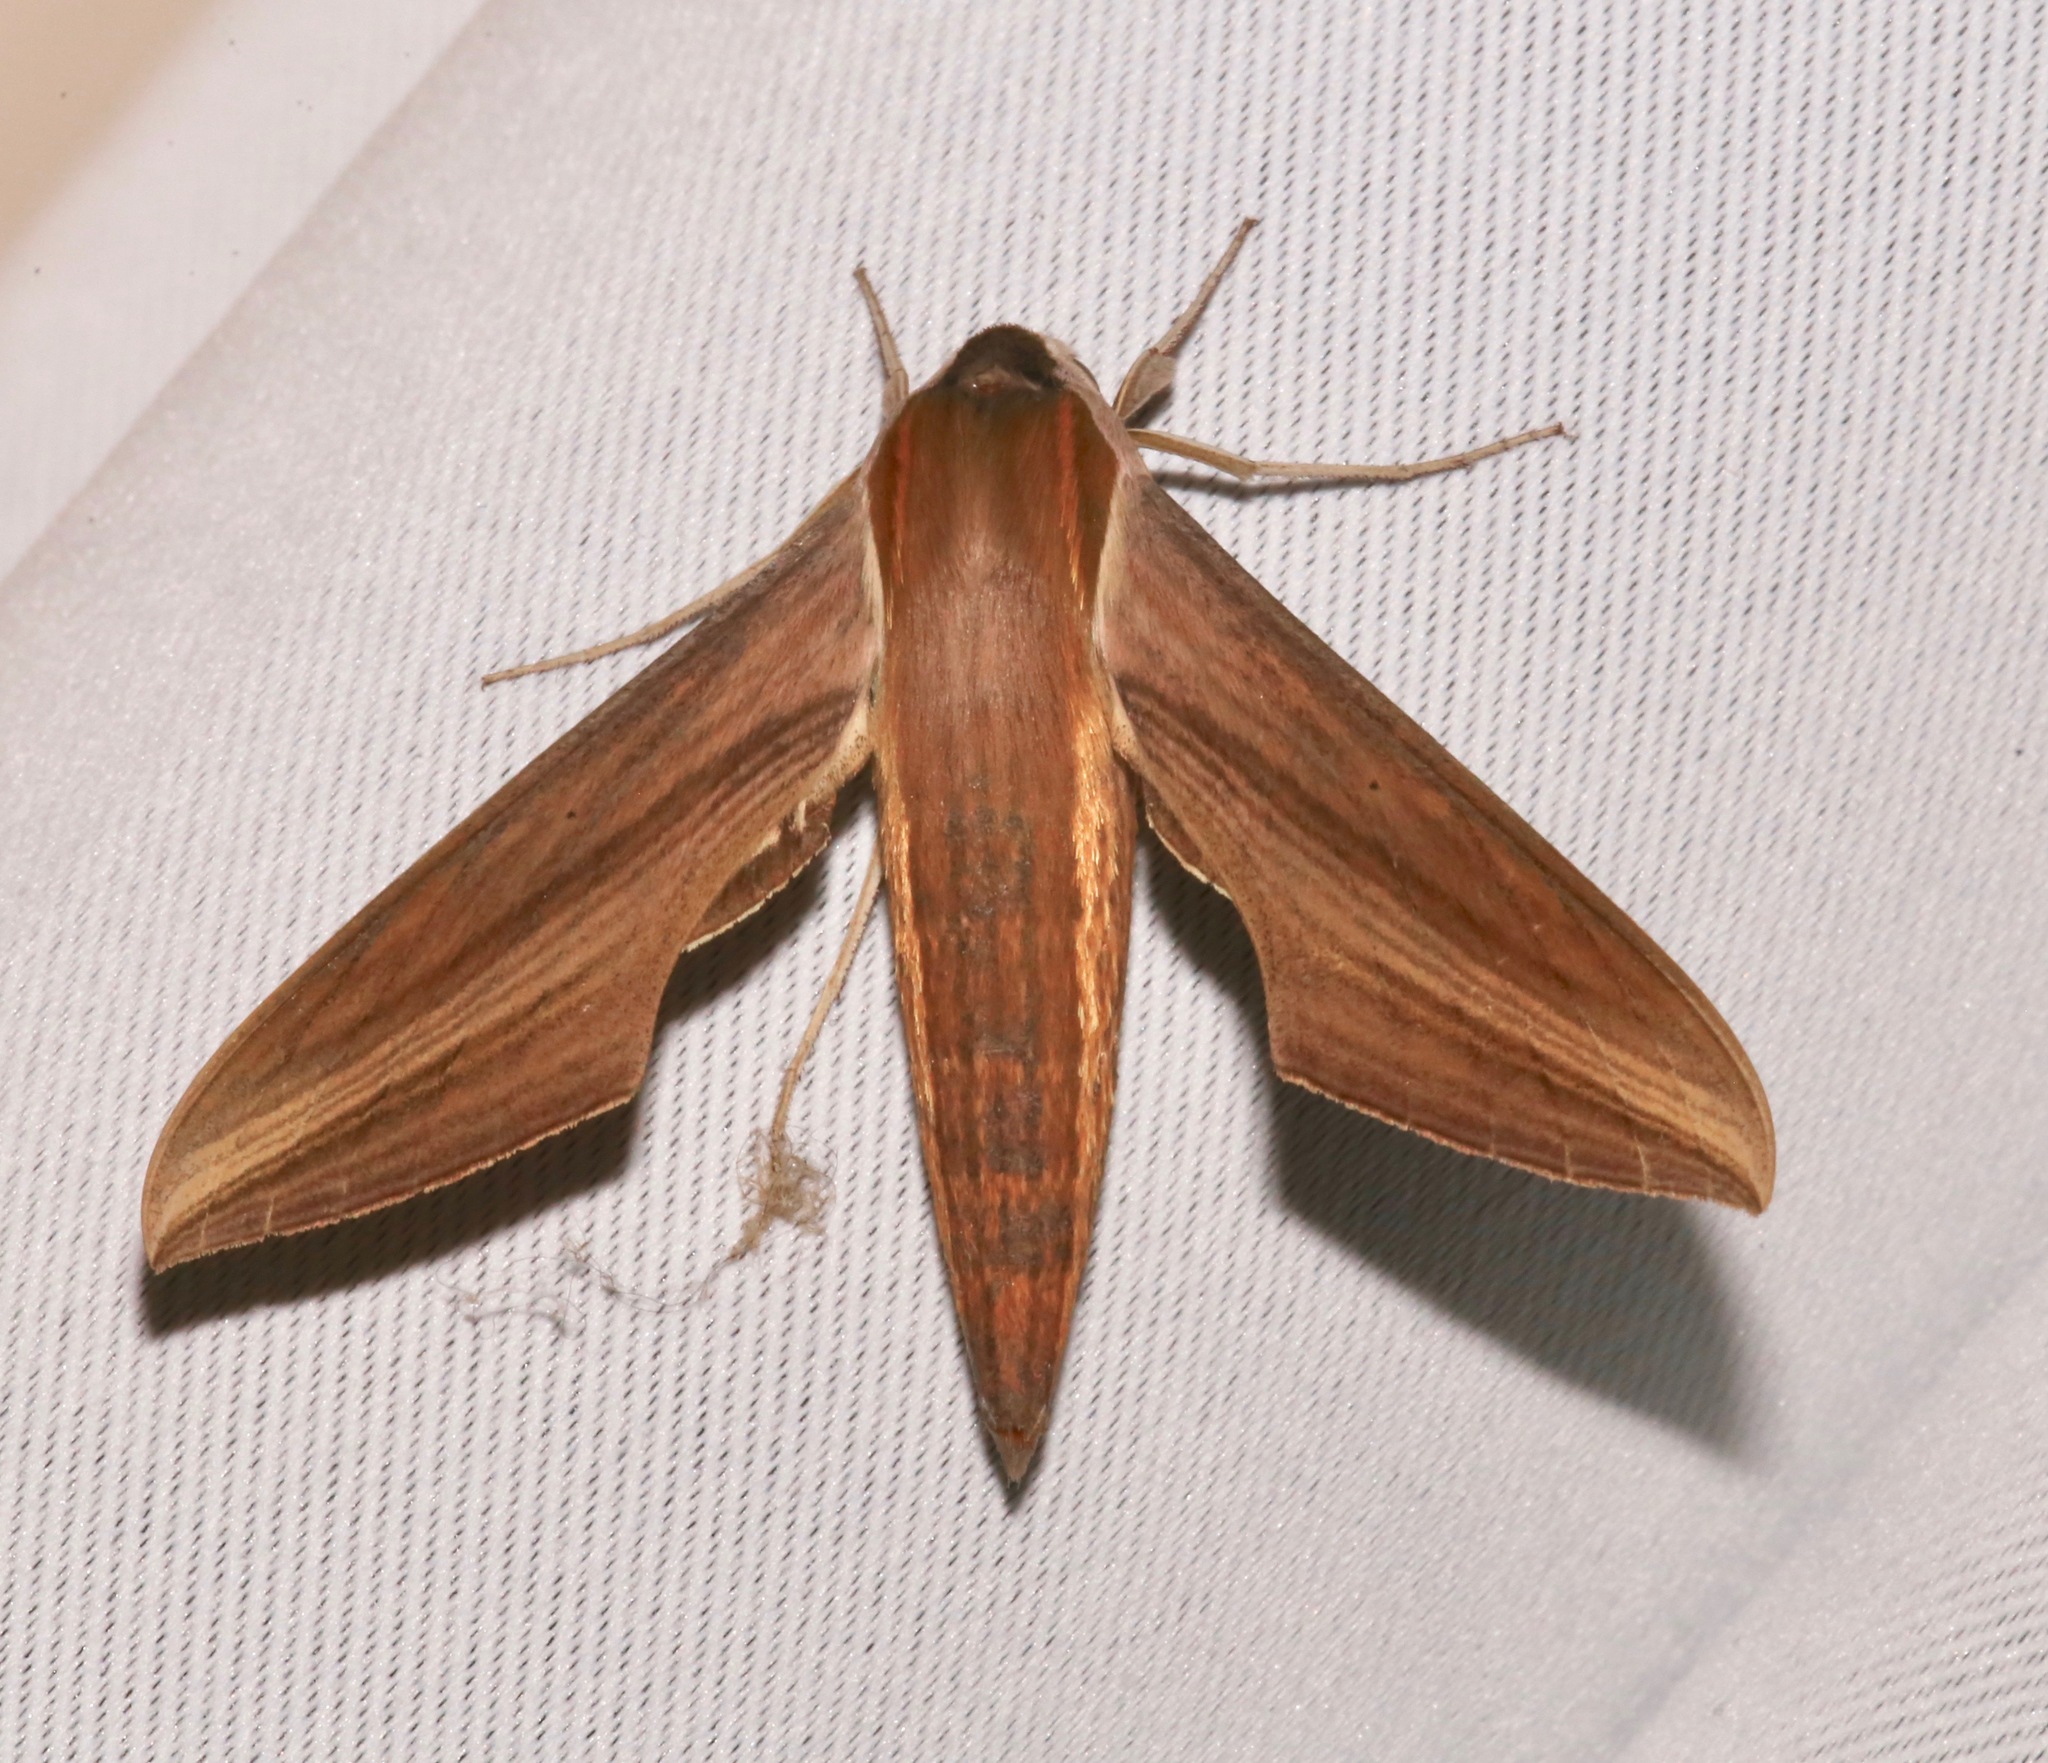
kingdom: Animalia
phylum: Arthropoda
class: Insecta
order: Lepidoptera
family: Sphingidae
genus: Xylophanes
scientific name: Xylophanes tersa
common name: Tersa sphinx
